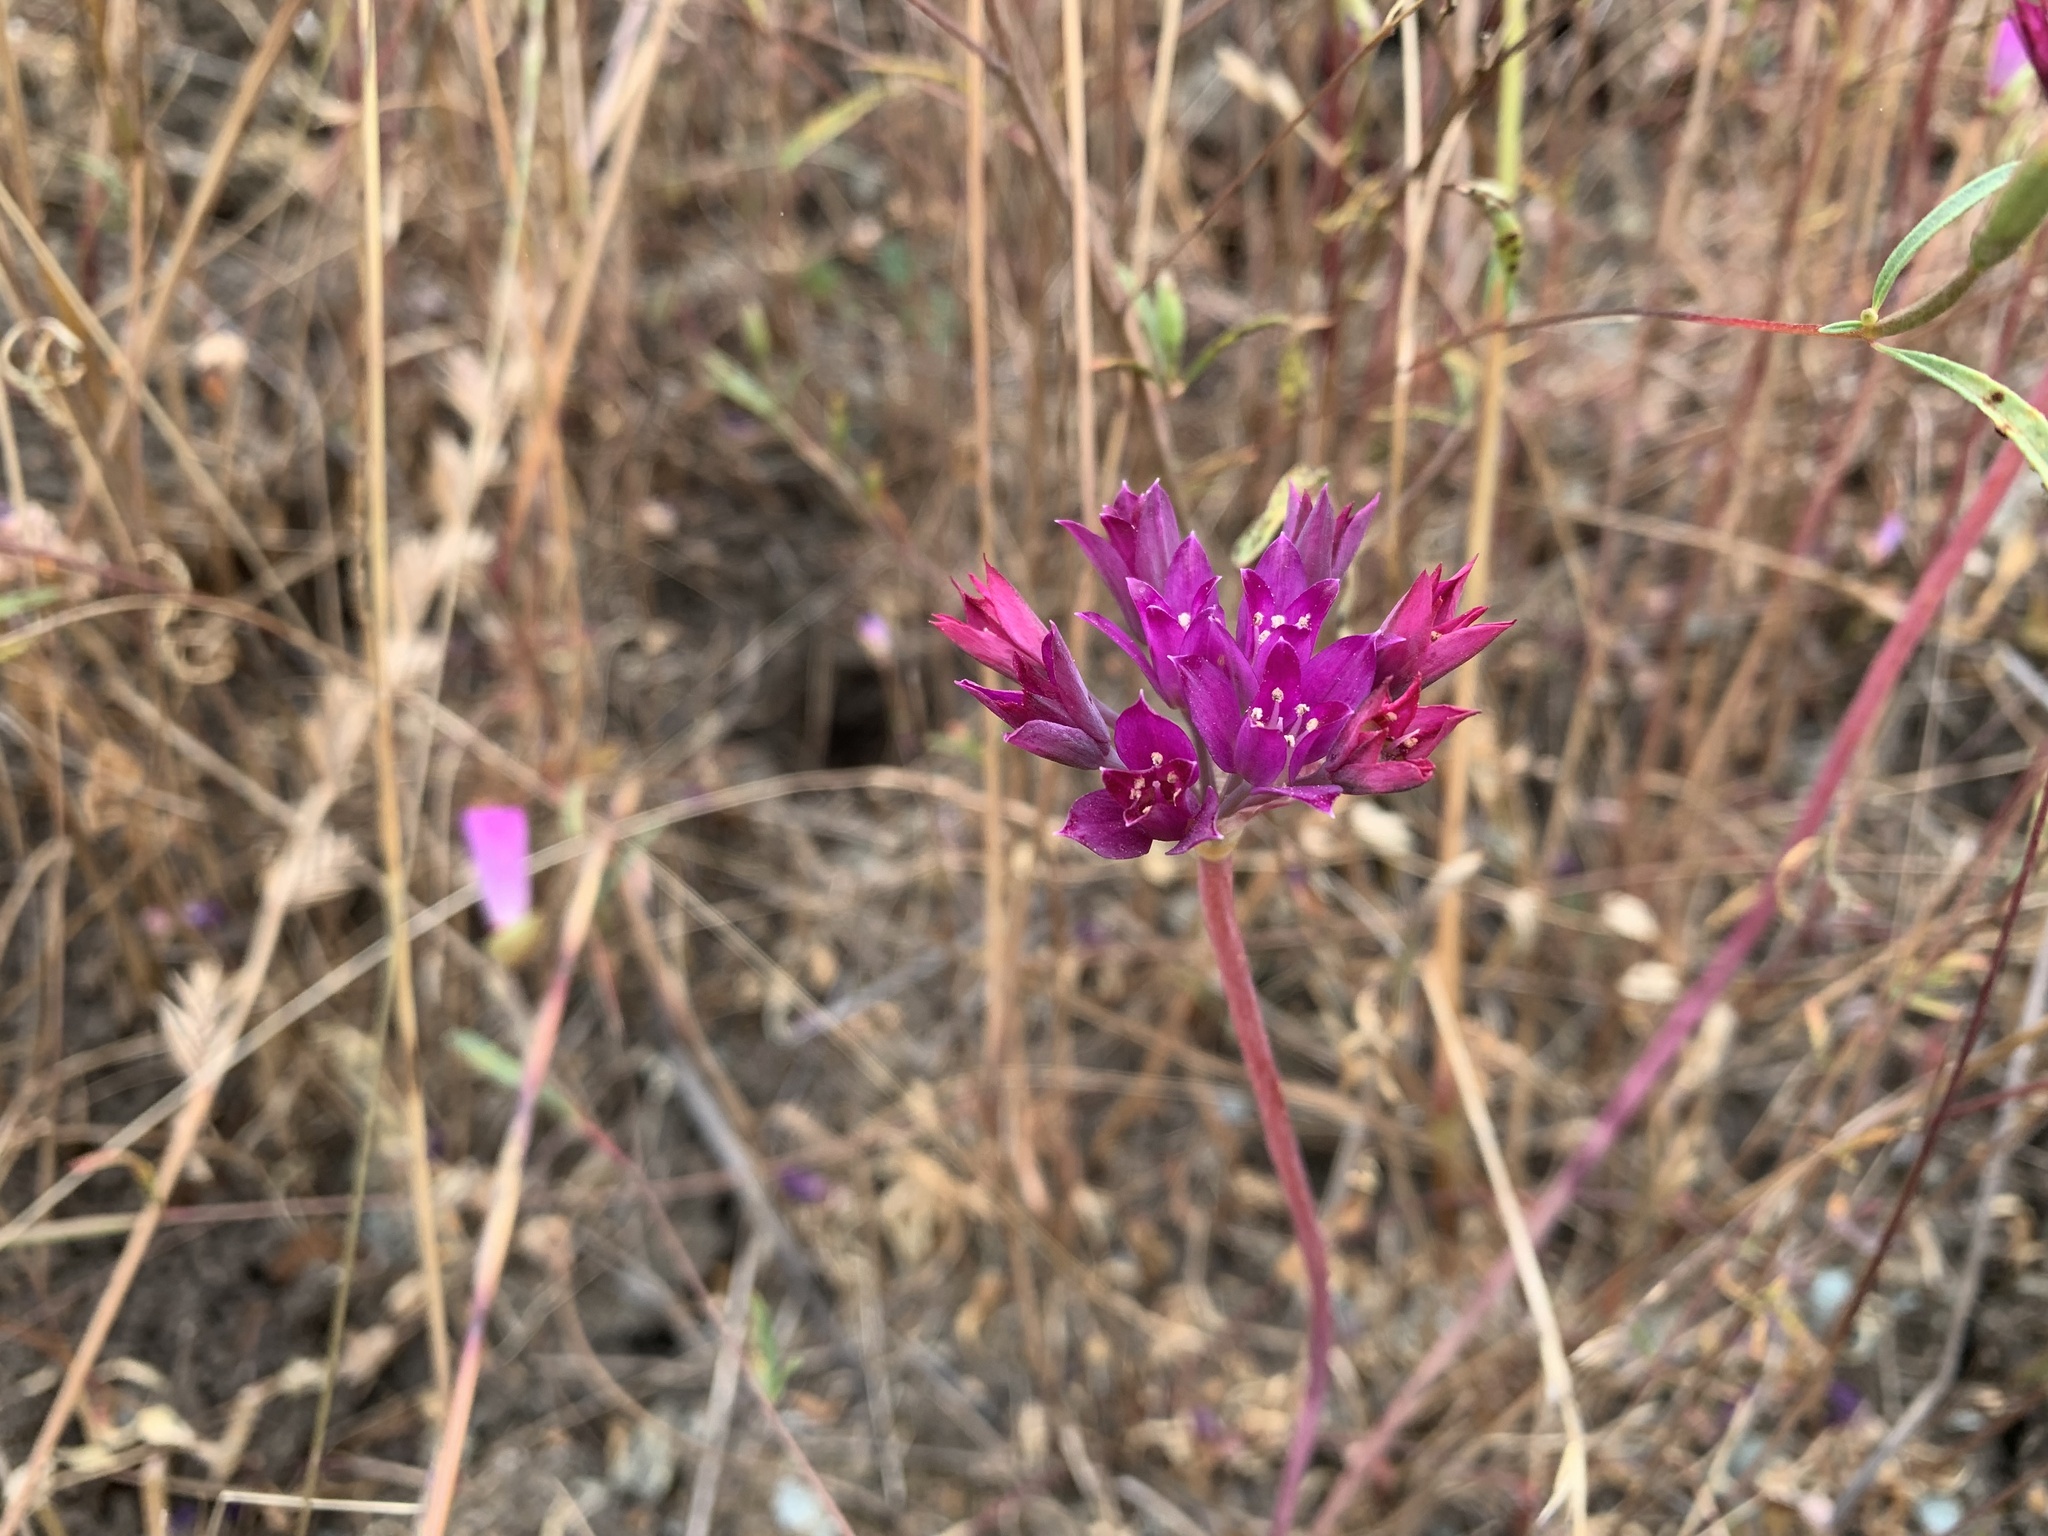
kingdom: Plantae
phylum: Tracheophyta
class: Liliopsida
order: Asparagales
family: Amaryllidaceae
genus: Allium
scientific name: Allium dichlamydeum
